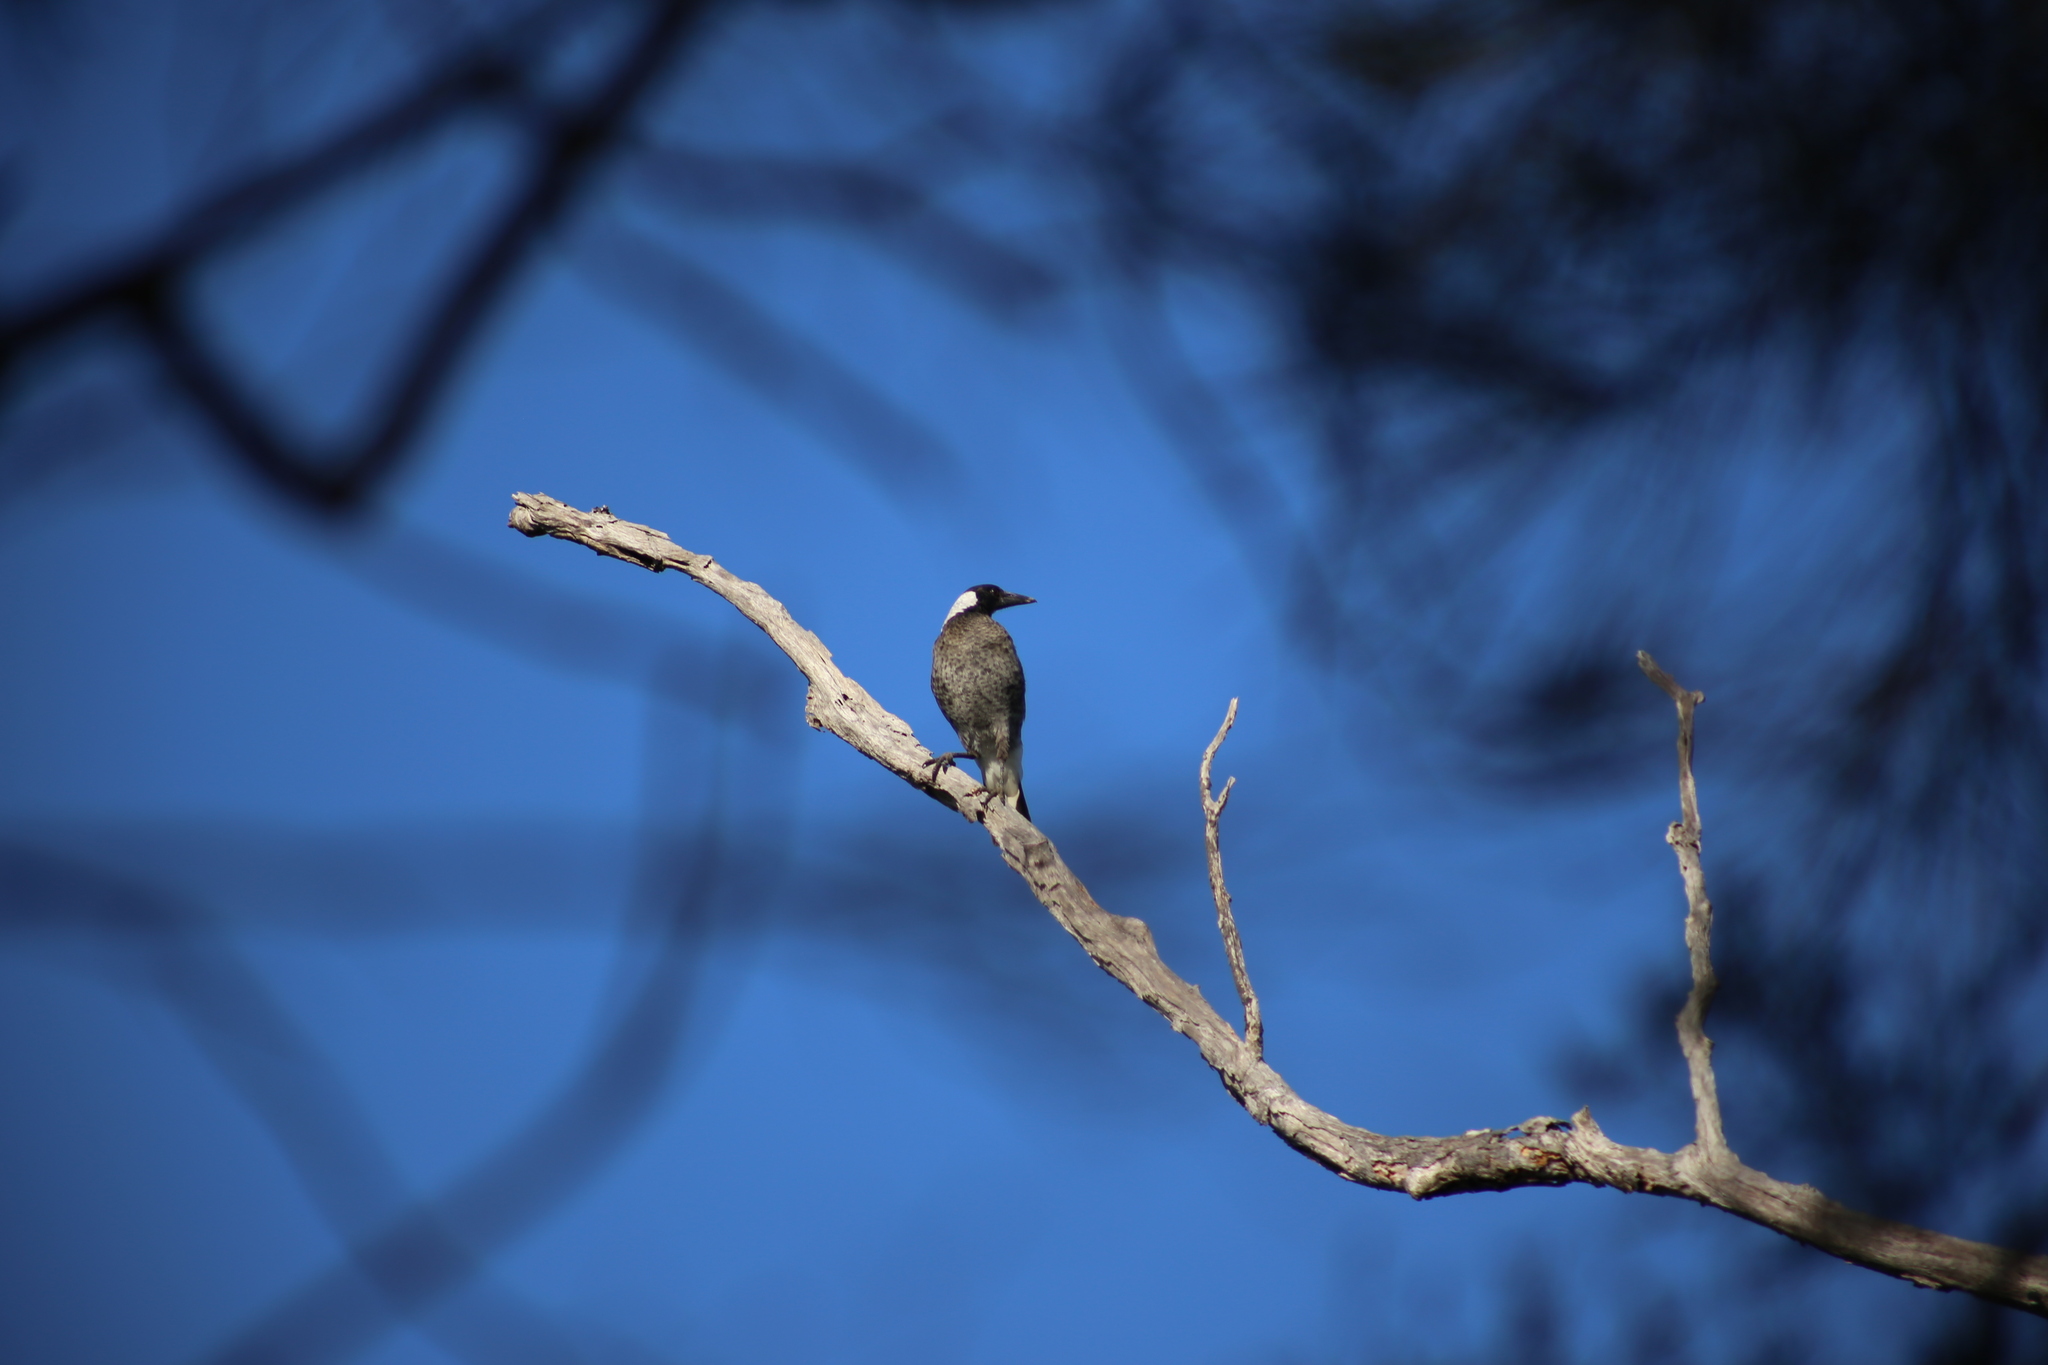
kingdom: Animalia
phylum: Chordata
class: Aves
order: Passeriformes
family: Cracticidae
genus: Gymnorhina
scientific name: Gymnorhina tibicen
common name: Australian magpie
